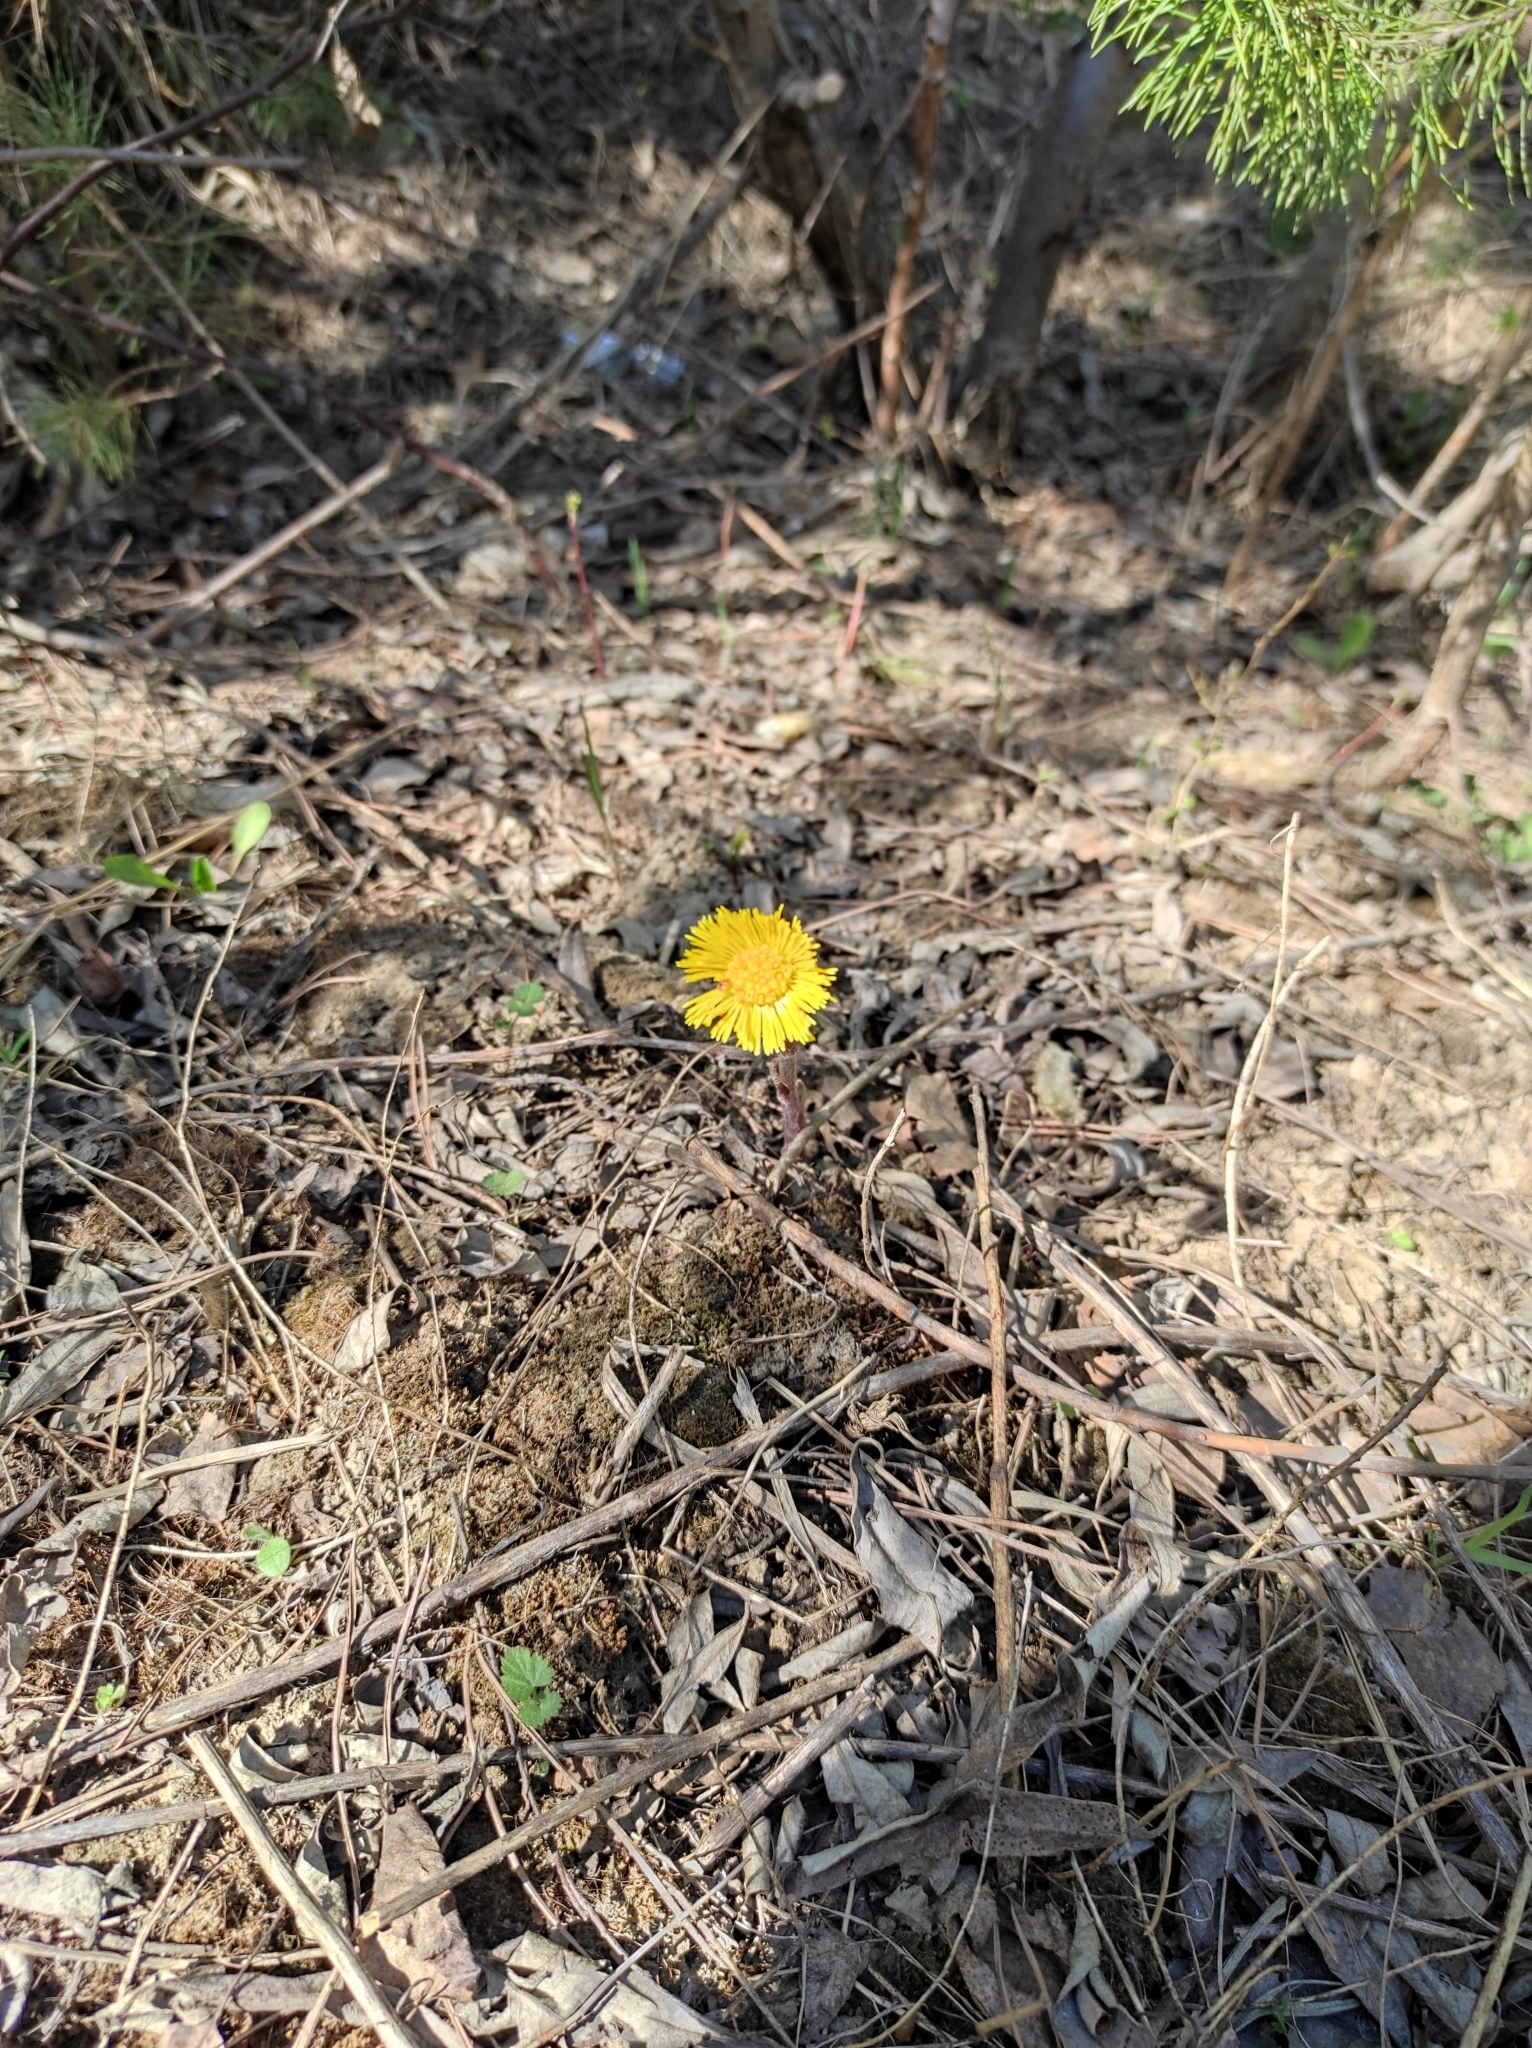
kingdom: Plantae
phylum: Tracheophyta
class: Magnoliopsida
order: Asterales
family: Asteraceae
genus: Tussilago
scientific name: Tussilago farfara
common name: Coltsfoot
